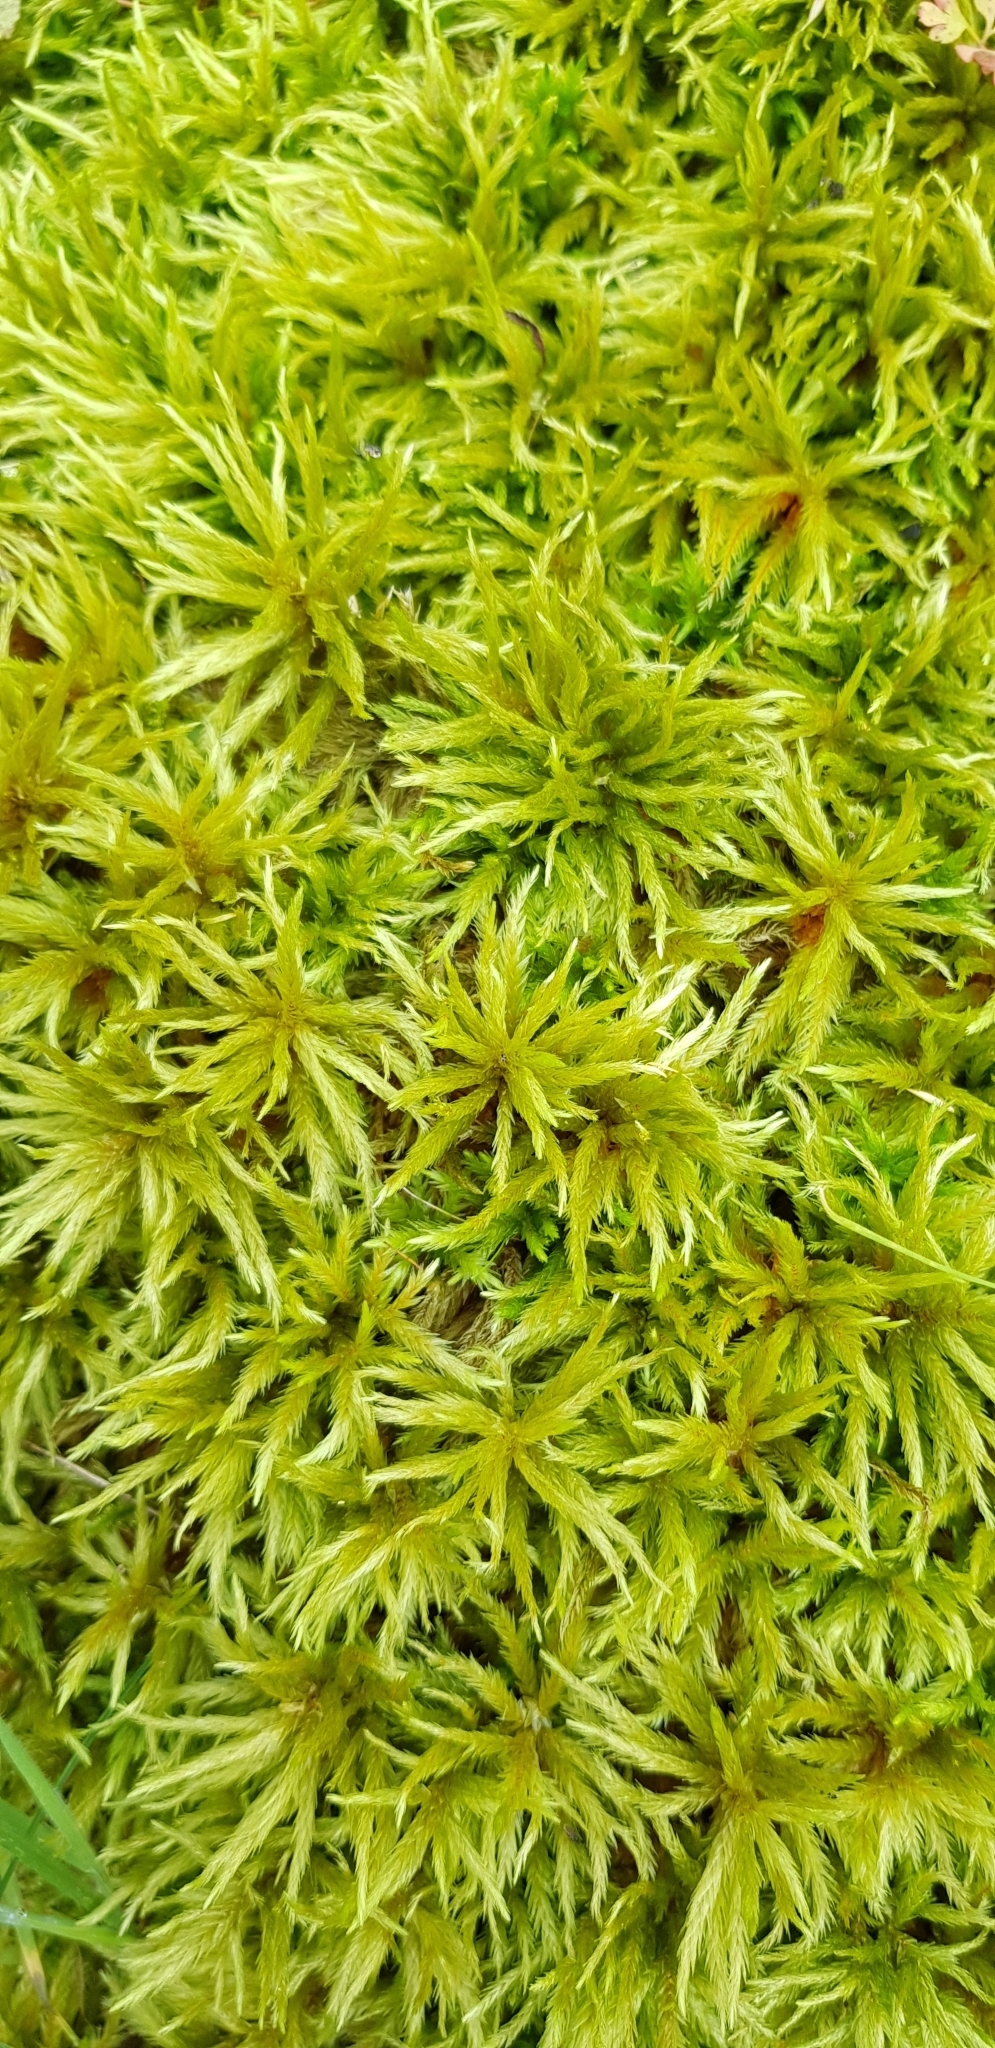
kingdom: Plantae
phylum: Bryophyta
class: Bryopsida
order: Hypnales
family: Climaciaceae
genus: Climacium
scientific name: Climacium dendroides
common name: Northern tree moss
